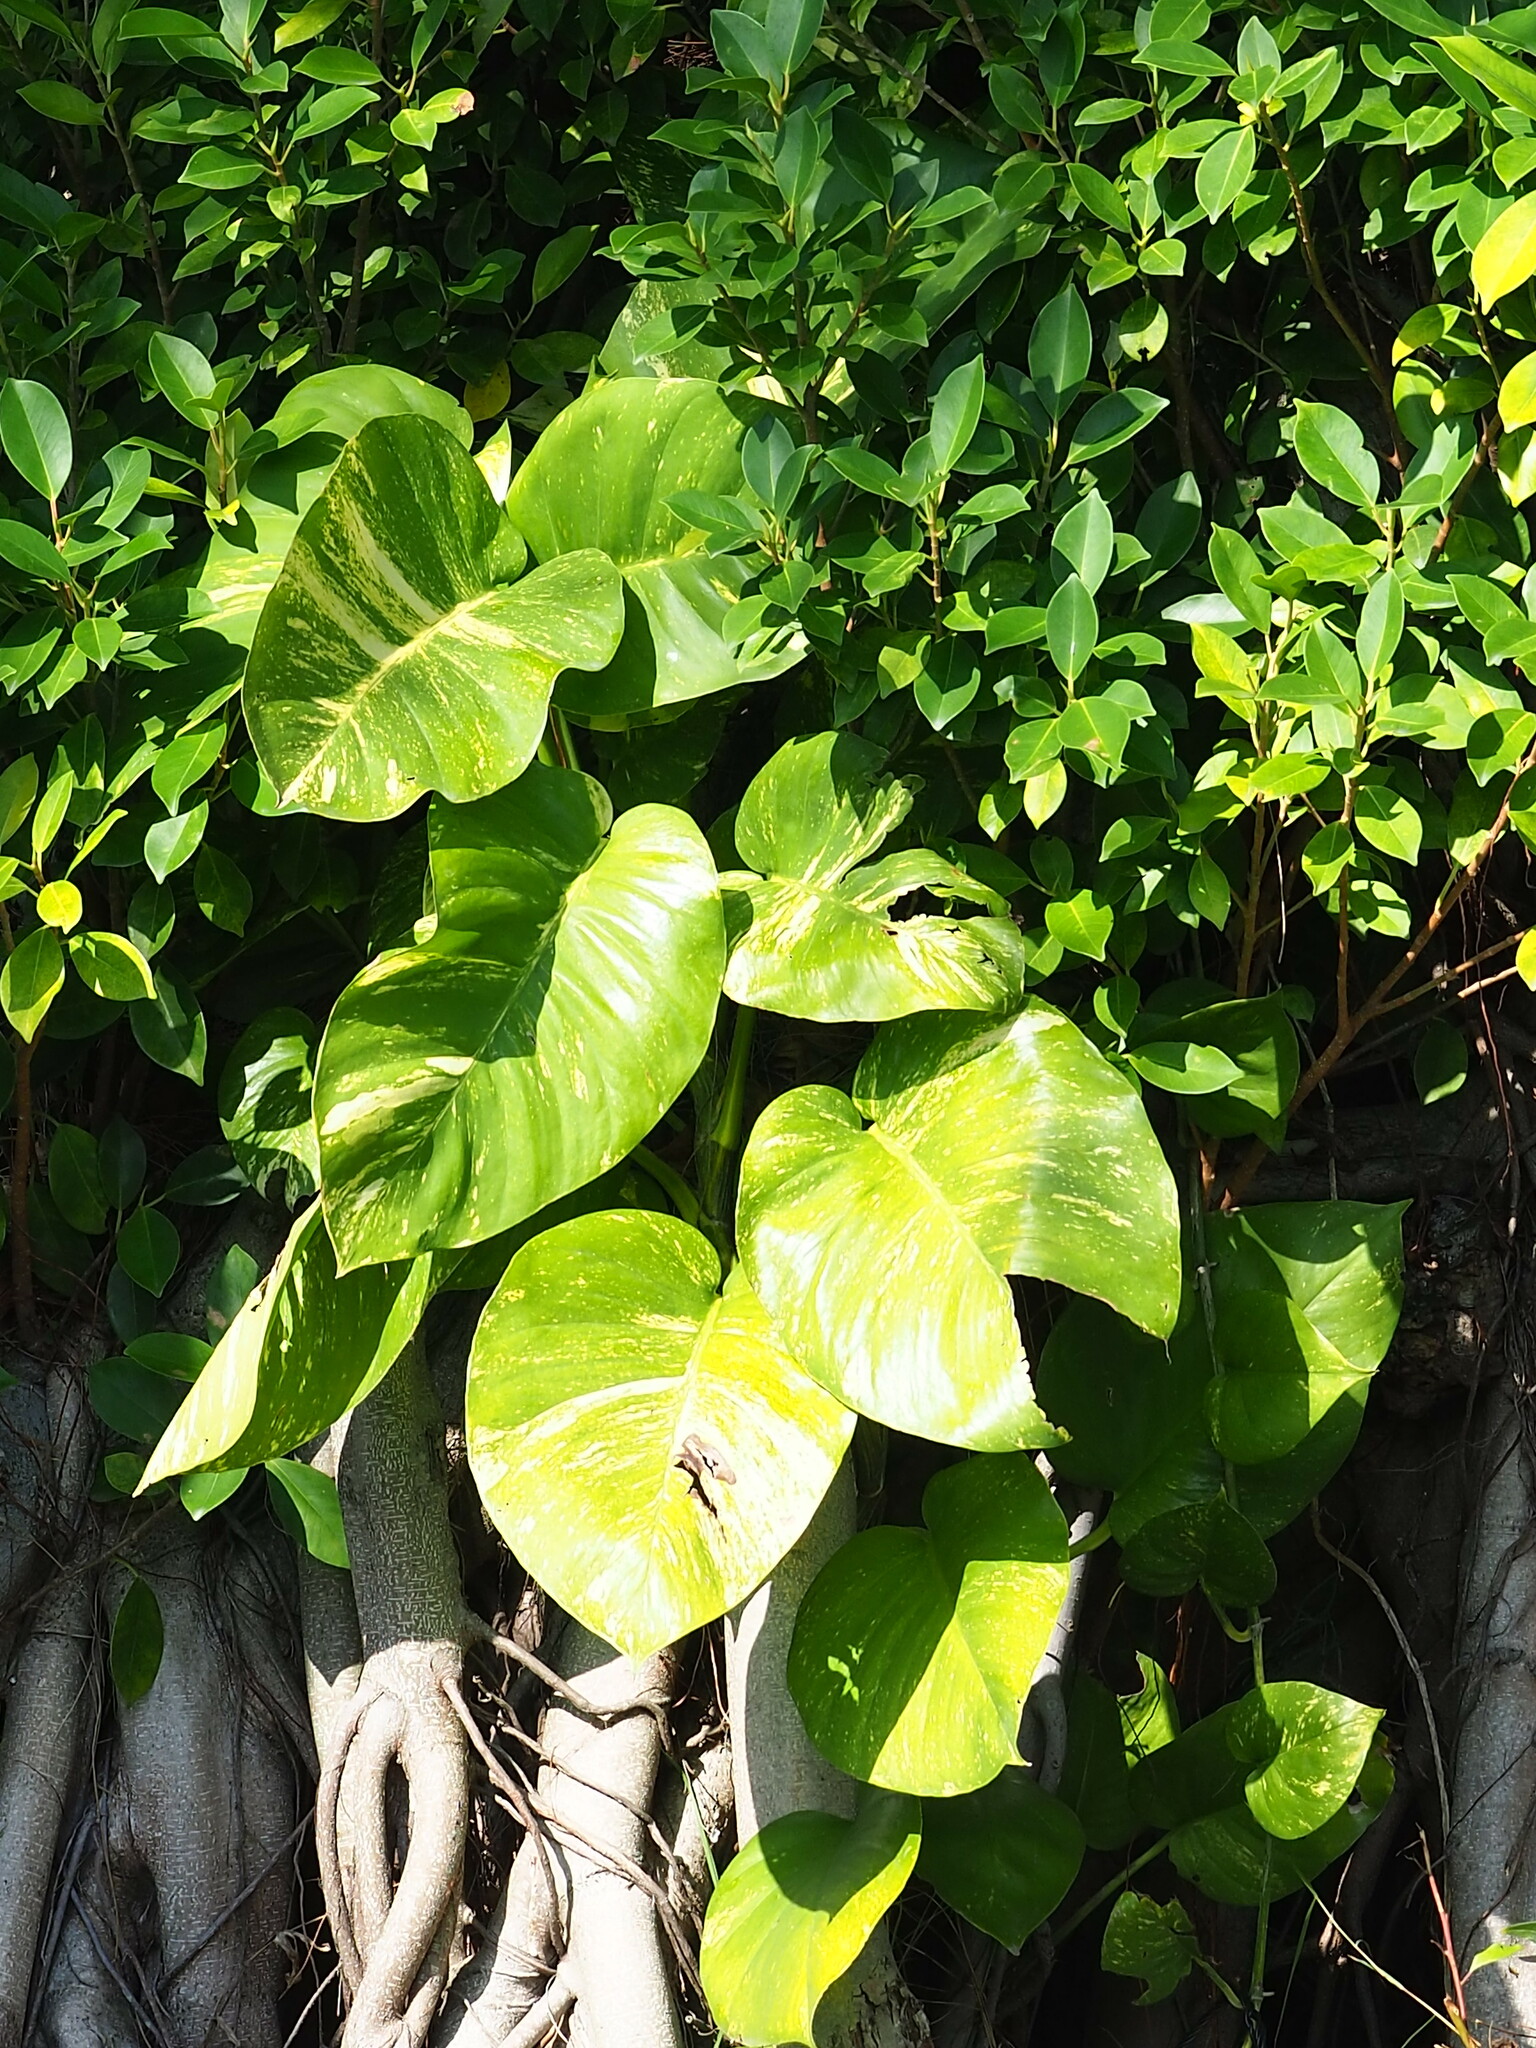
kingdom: Plantae
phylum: Tracheophyta
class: Liliopsida
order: Alismatales
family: Araceae
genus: Epipremnum
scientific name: Epipremnum aureum
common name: Golden hunter's-robe
